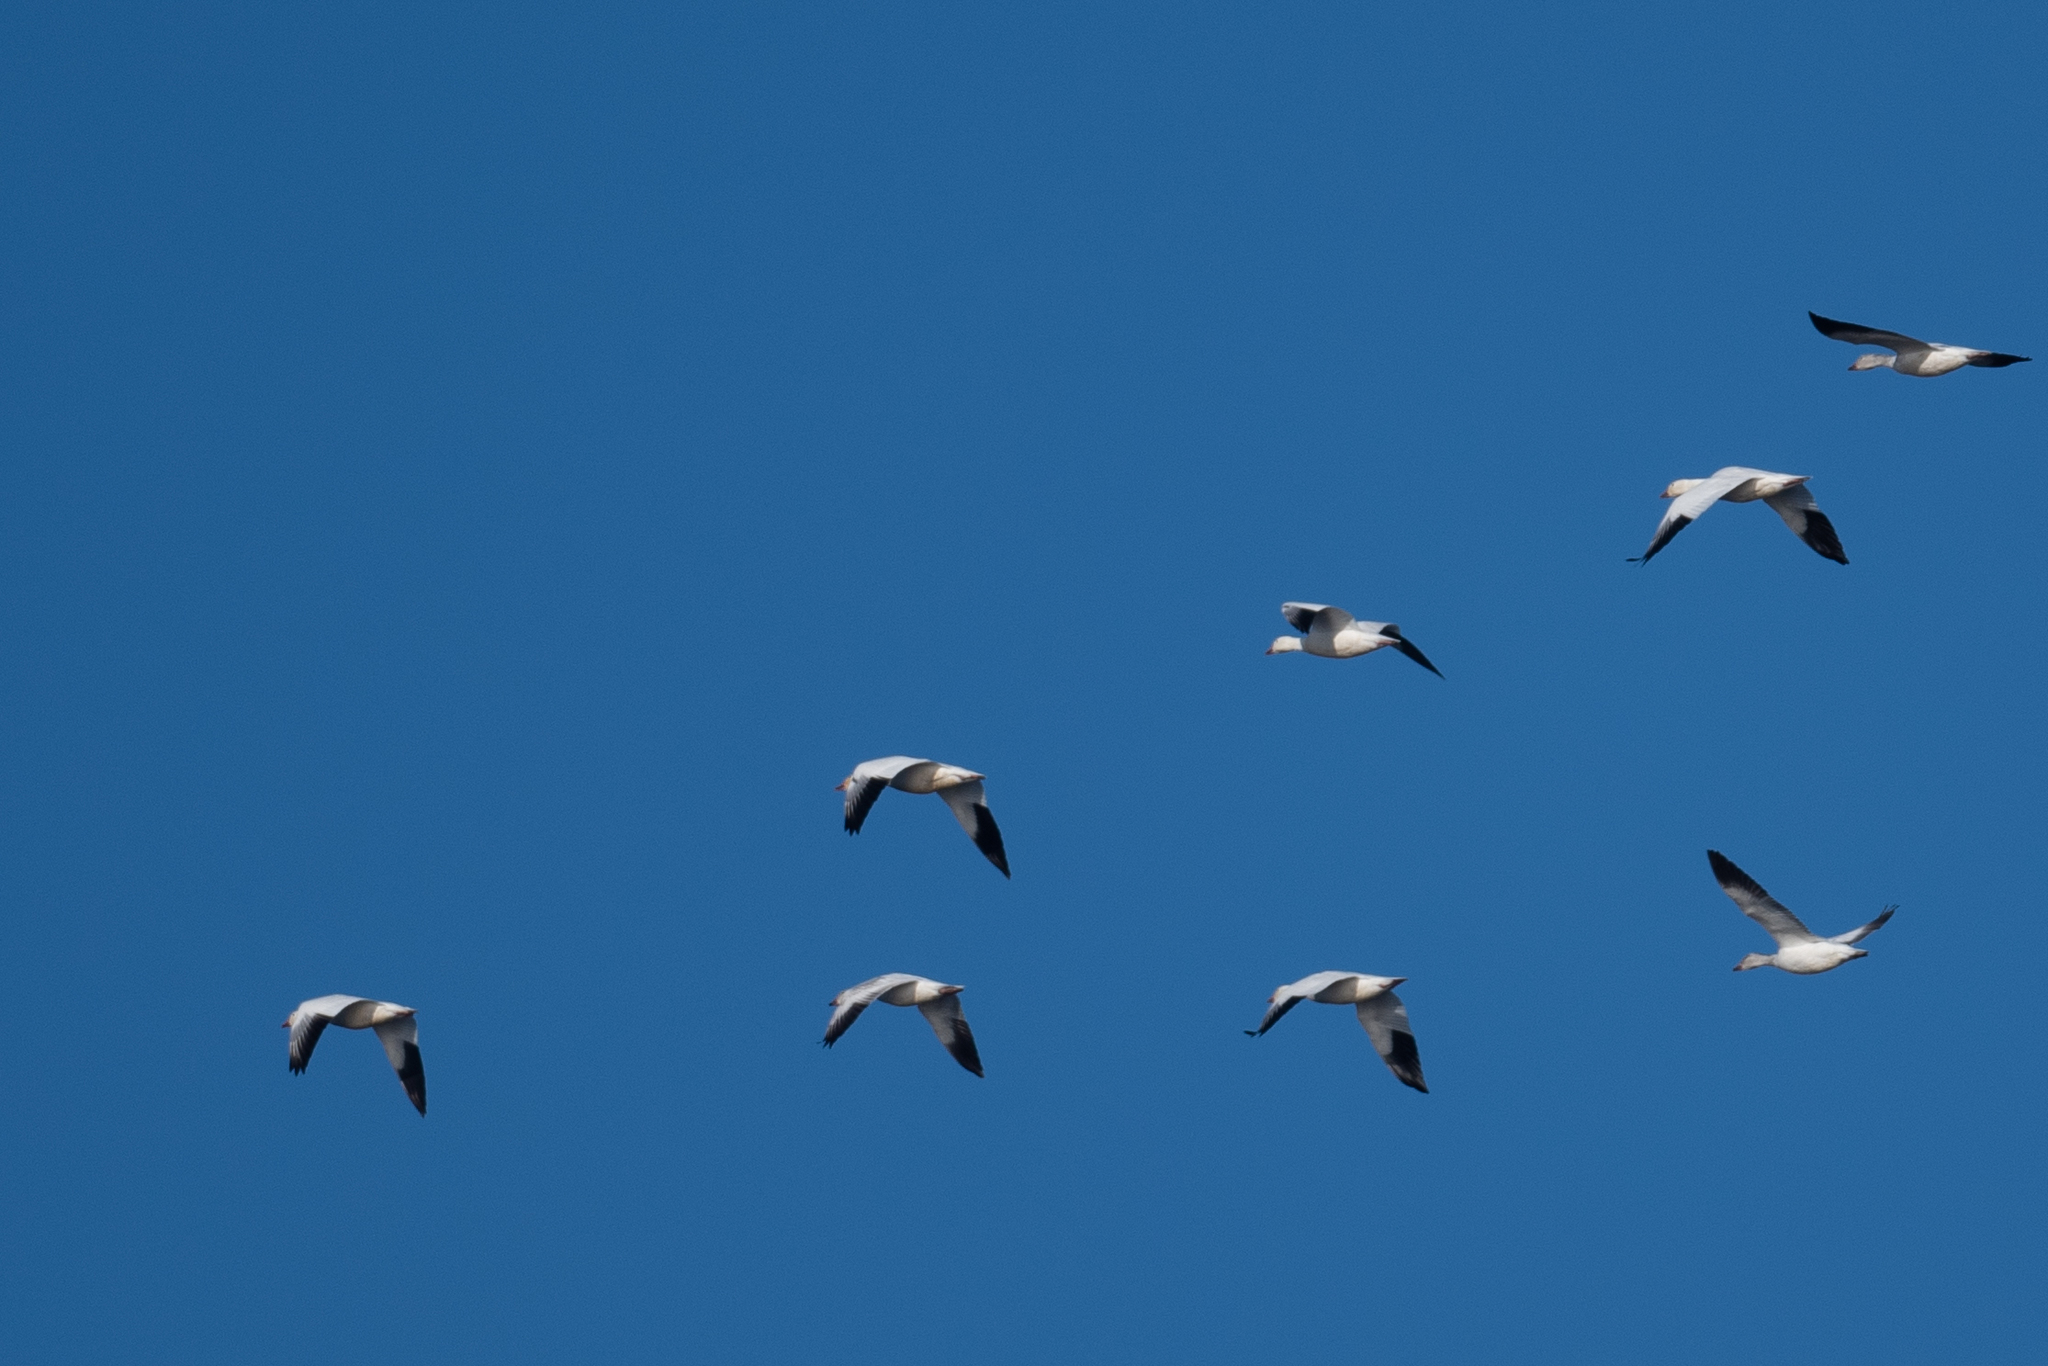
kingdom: Animalia
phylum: Chordata
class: Aves
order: Anseriformes
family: Anatidae
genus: Anser
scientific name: Anser caerulescens
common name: Snow goose
